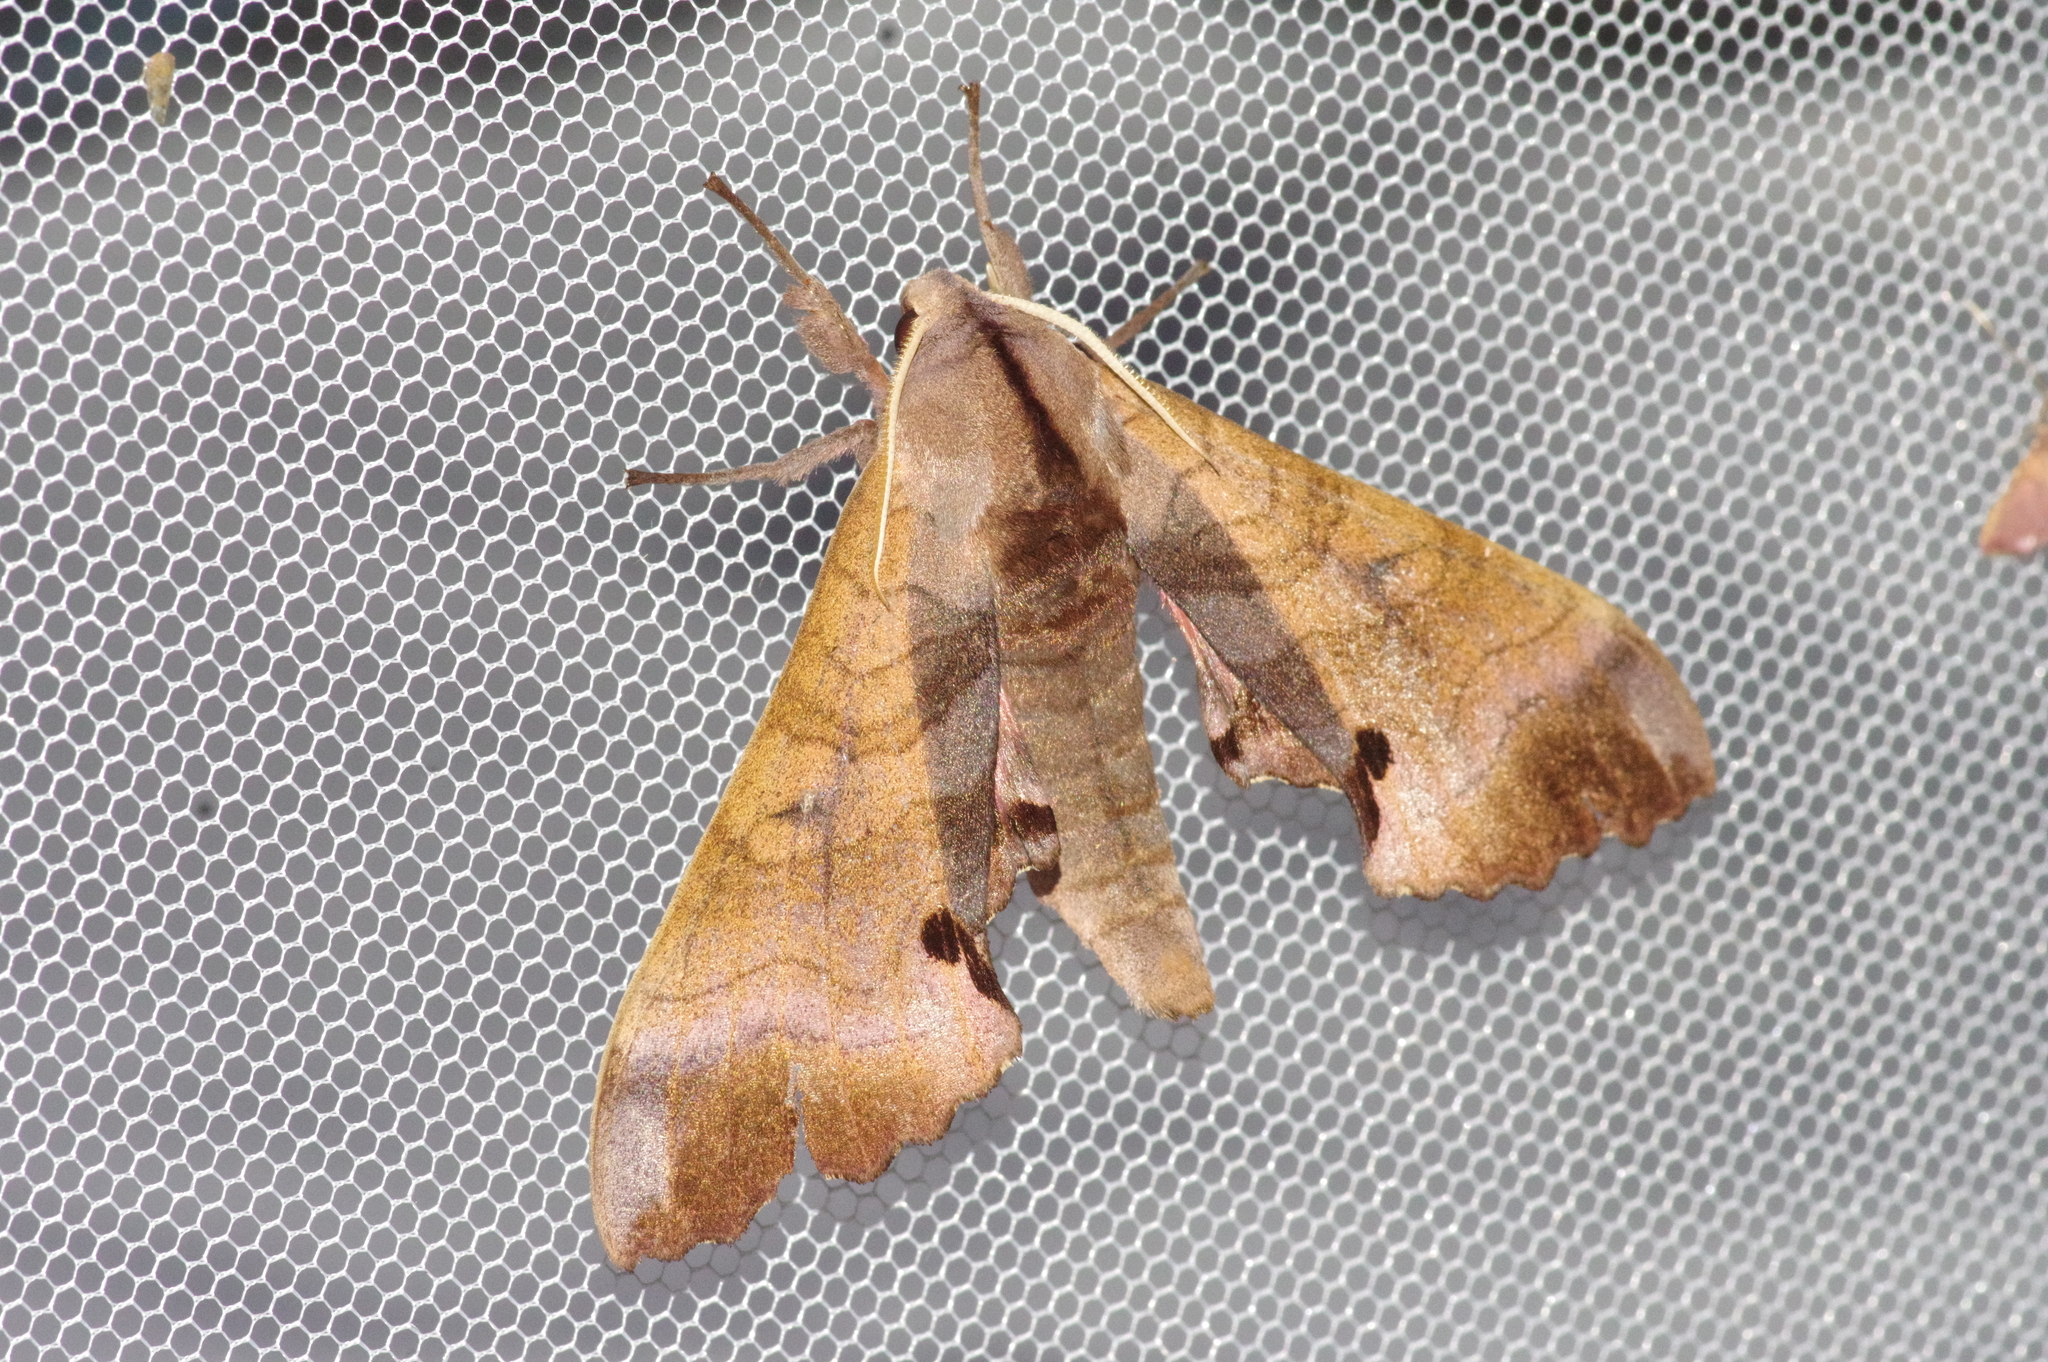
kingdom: Animalia
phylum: Arthropoda
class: Insecta
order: Lepidoptera
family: Sphingidae
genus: Marumba
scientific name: Marumba echephron
